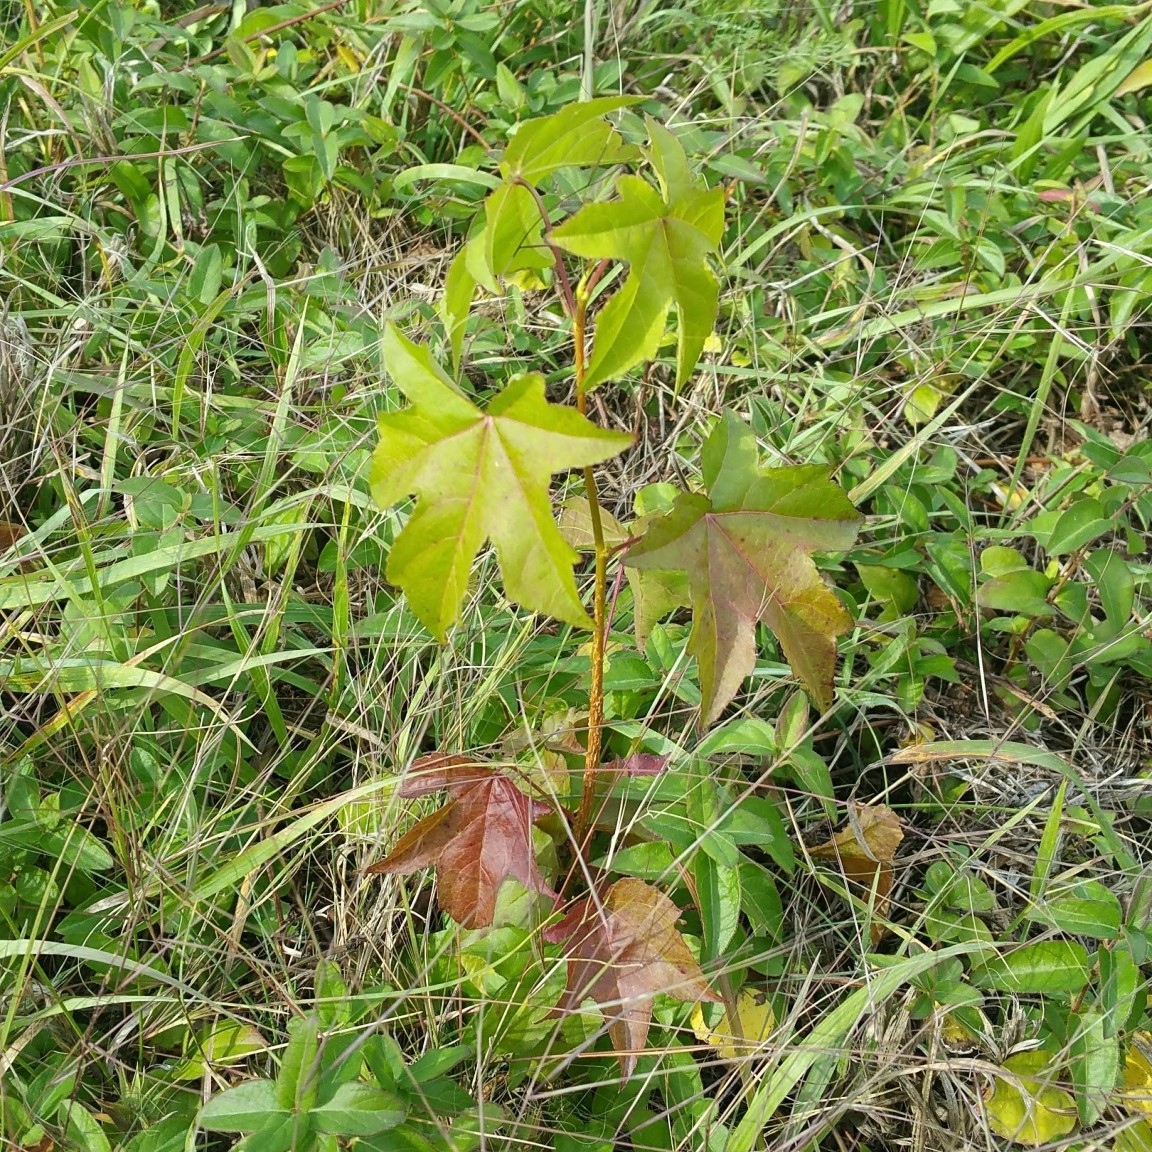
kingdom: Plantae
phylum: Tracheophyta
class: Magnoliopsida
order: Saxifragales
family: Altingiaceae
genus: Liquidambar
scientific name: Liquidambar styraciflua
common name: Sweet gum
